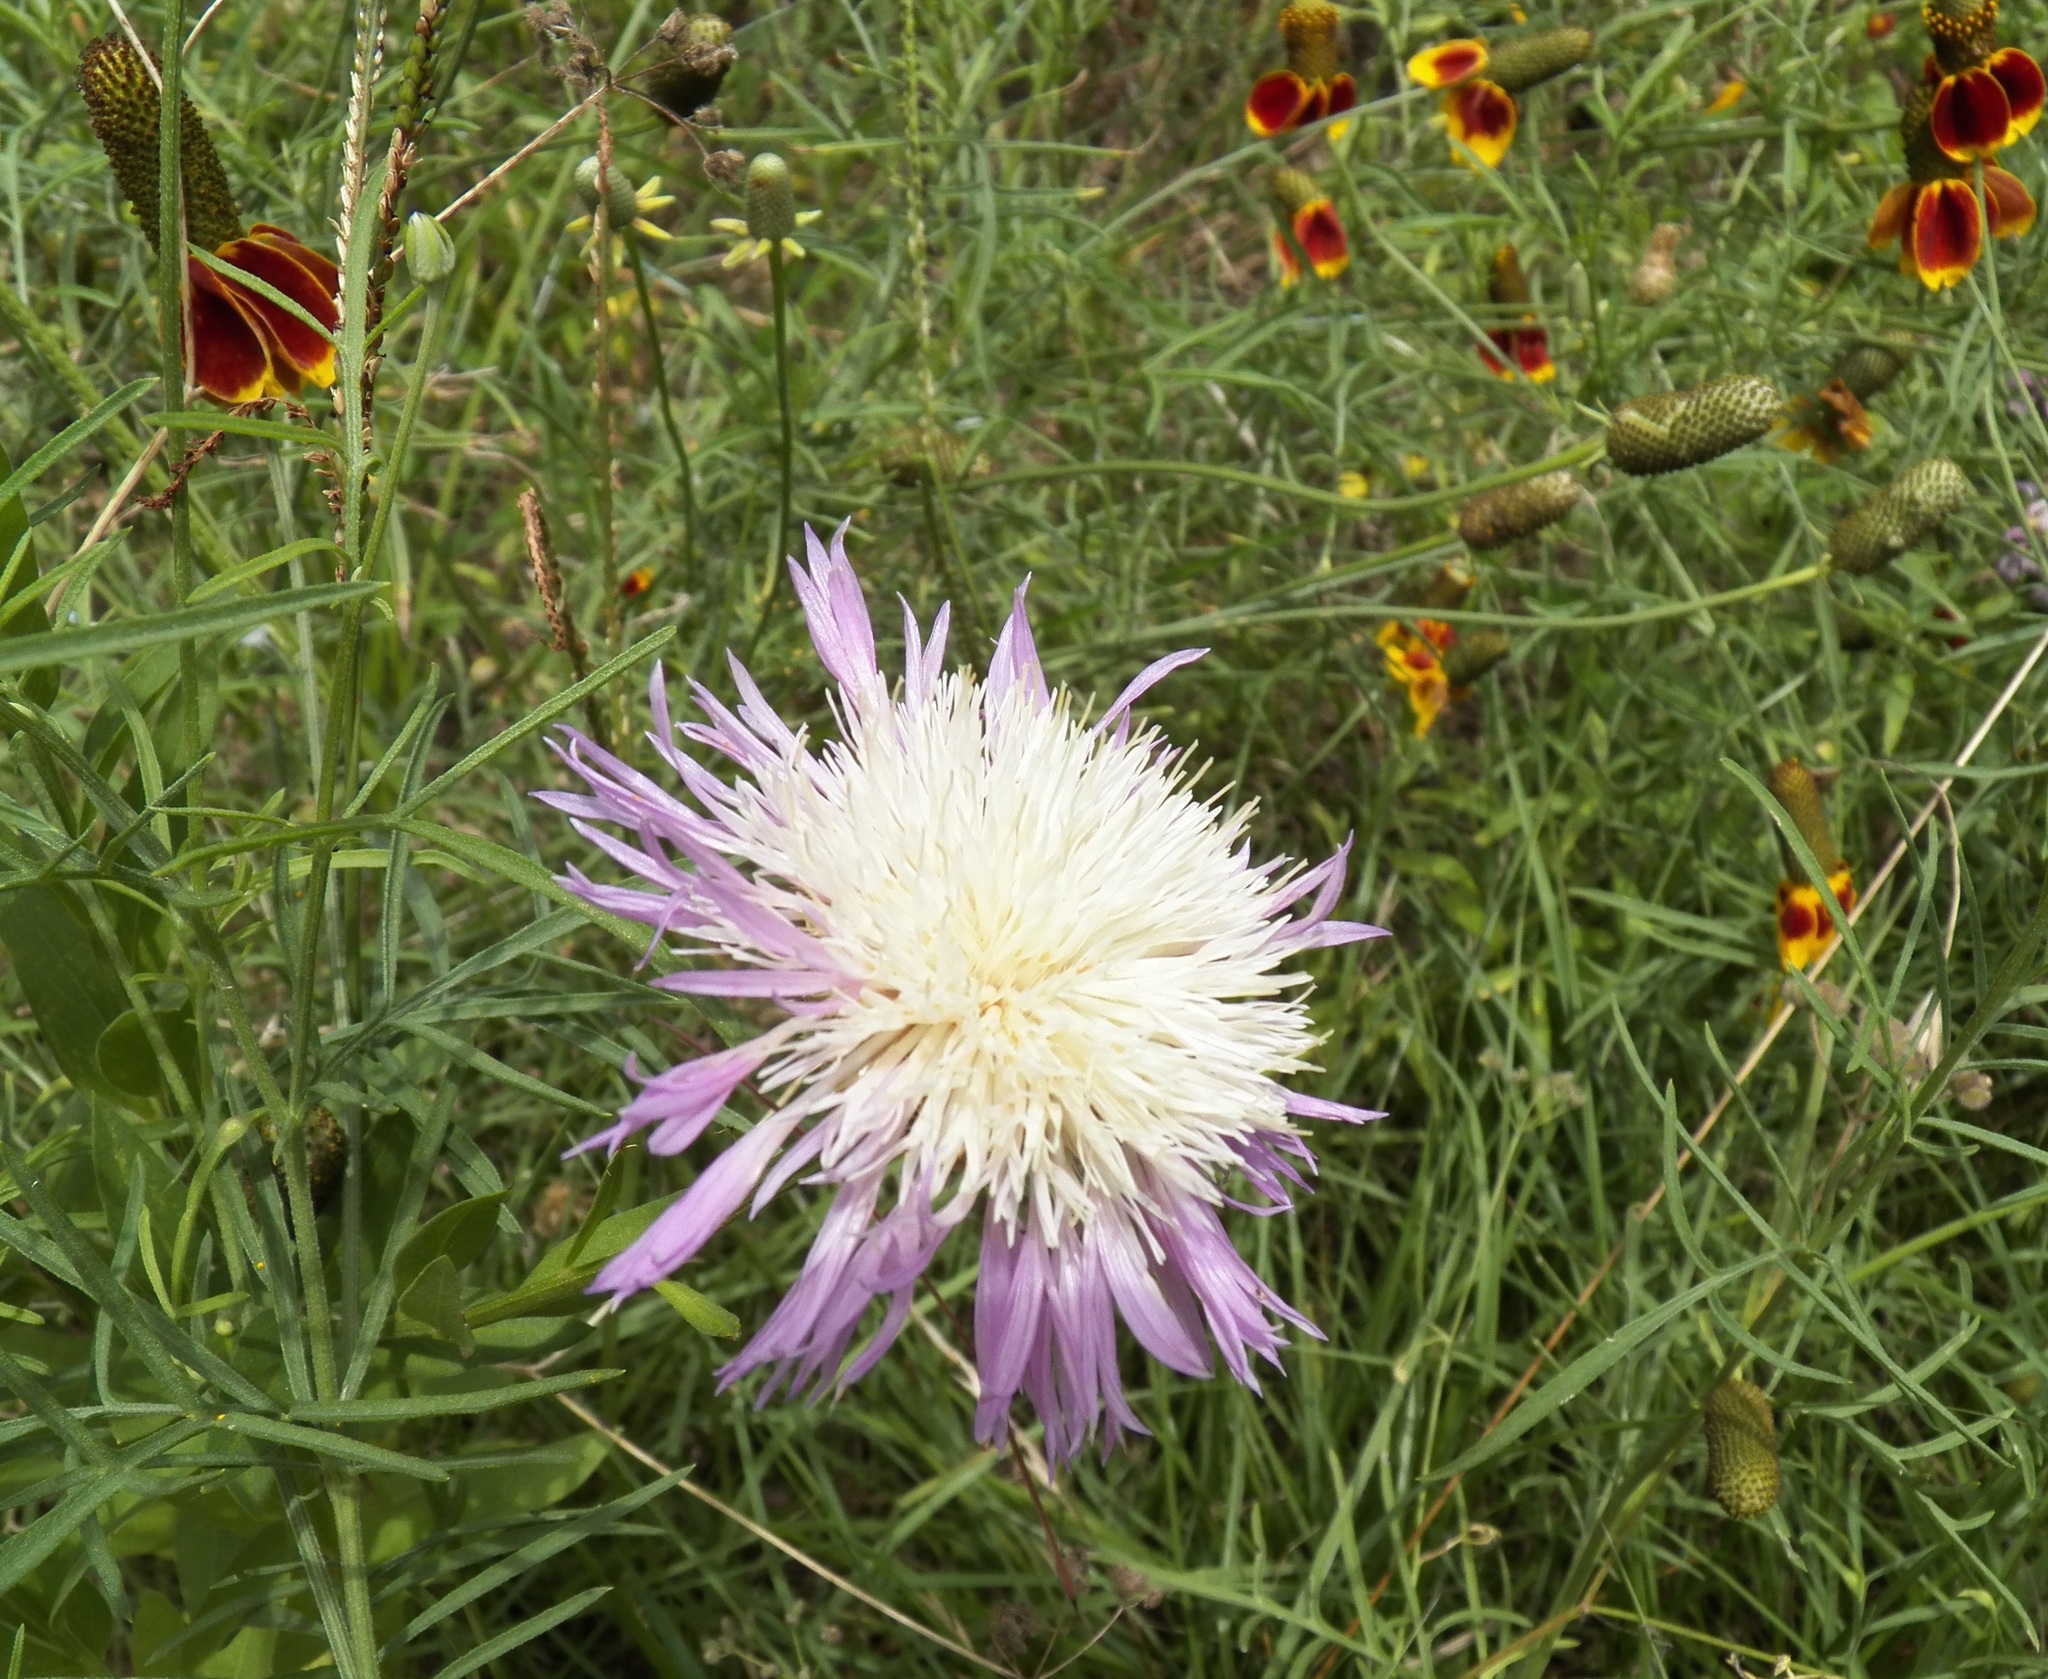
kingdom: Plantae
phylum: Tracheophyta
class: Magnoliopsida
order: Asterales
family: Asteraceae
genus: Plectocephalus
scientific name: Plectocephalus americanus
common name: American basket-flower
